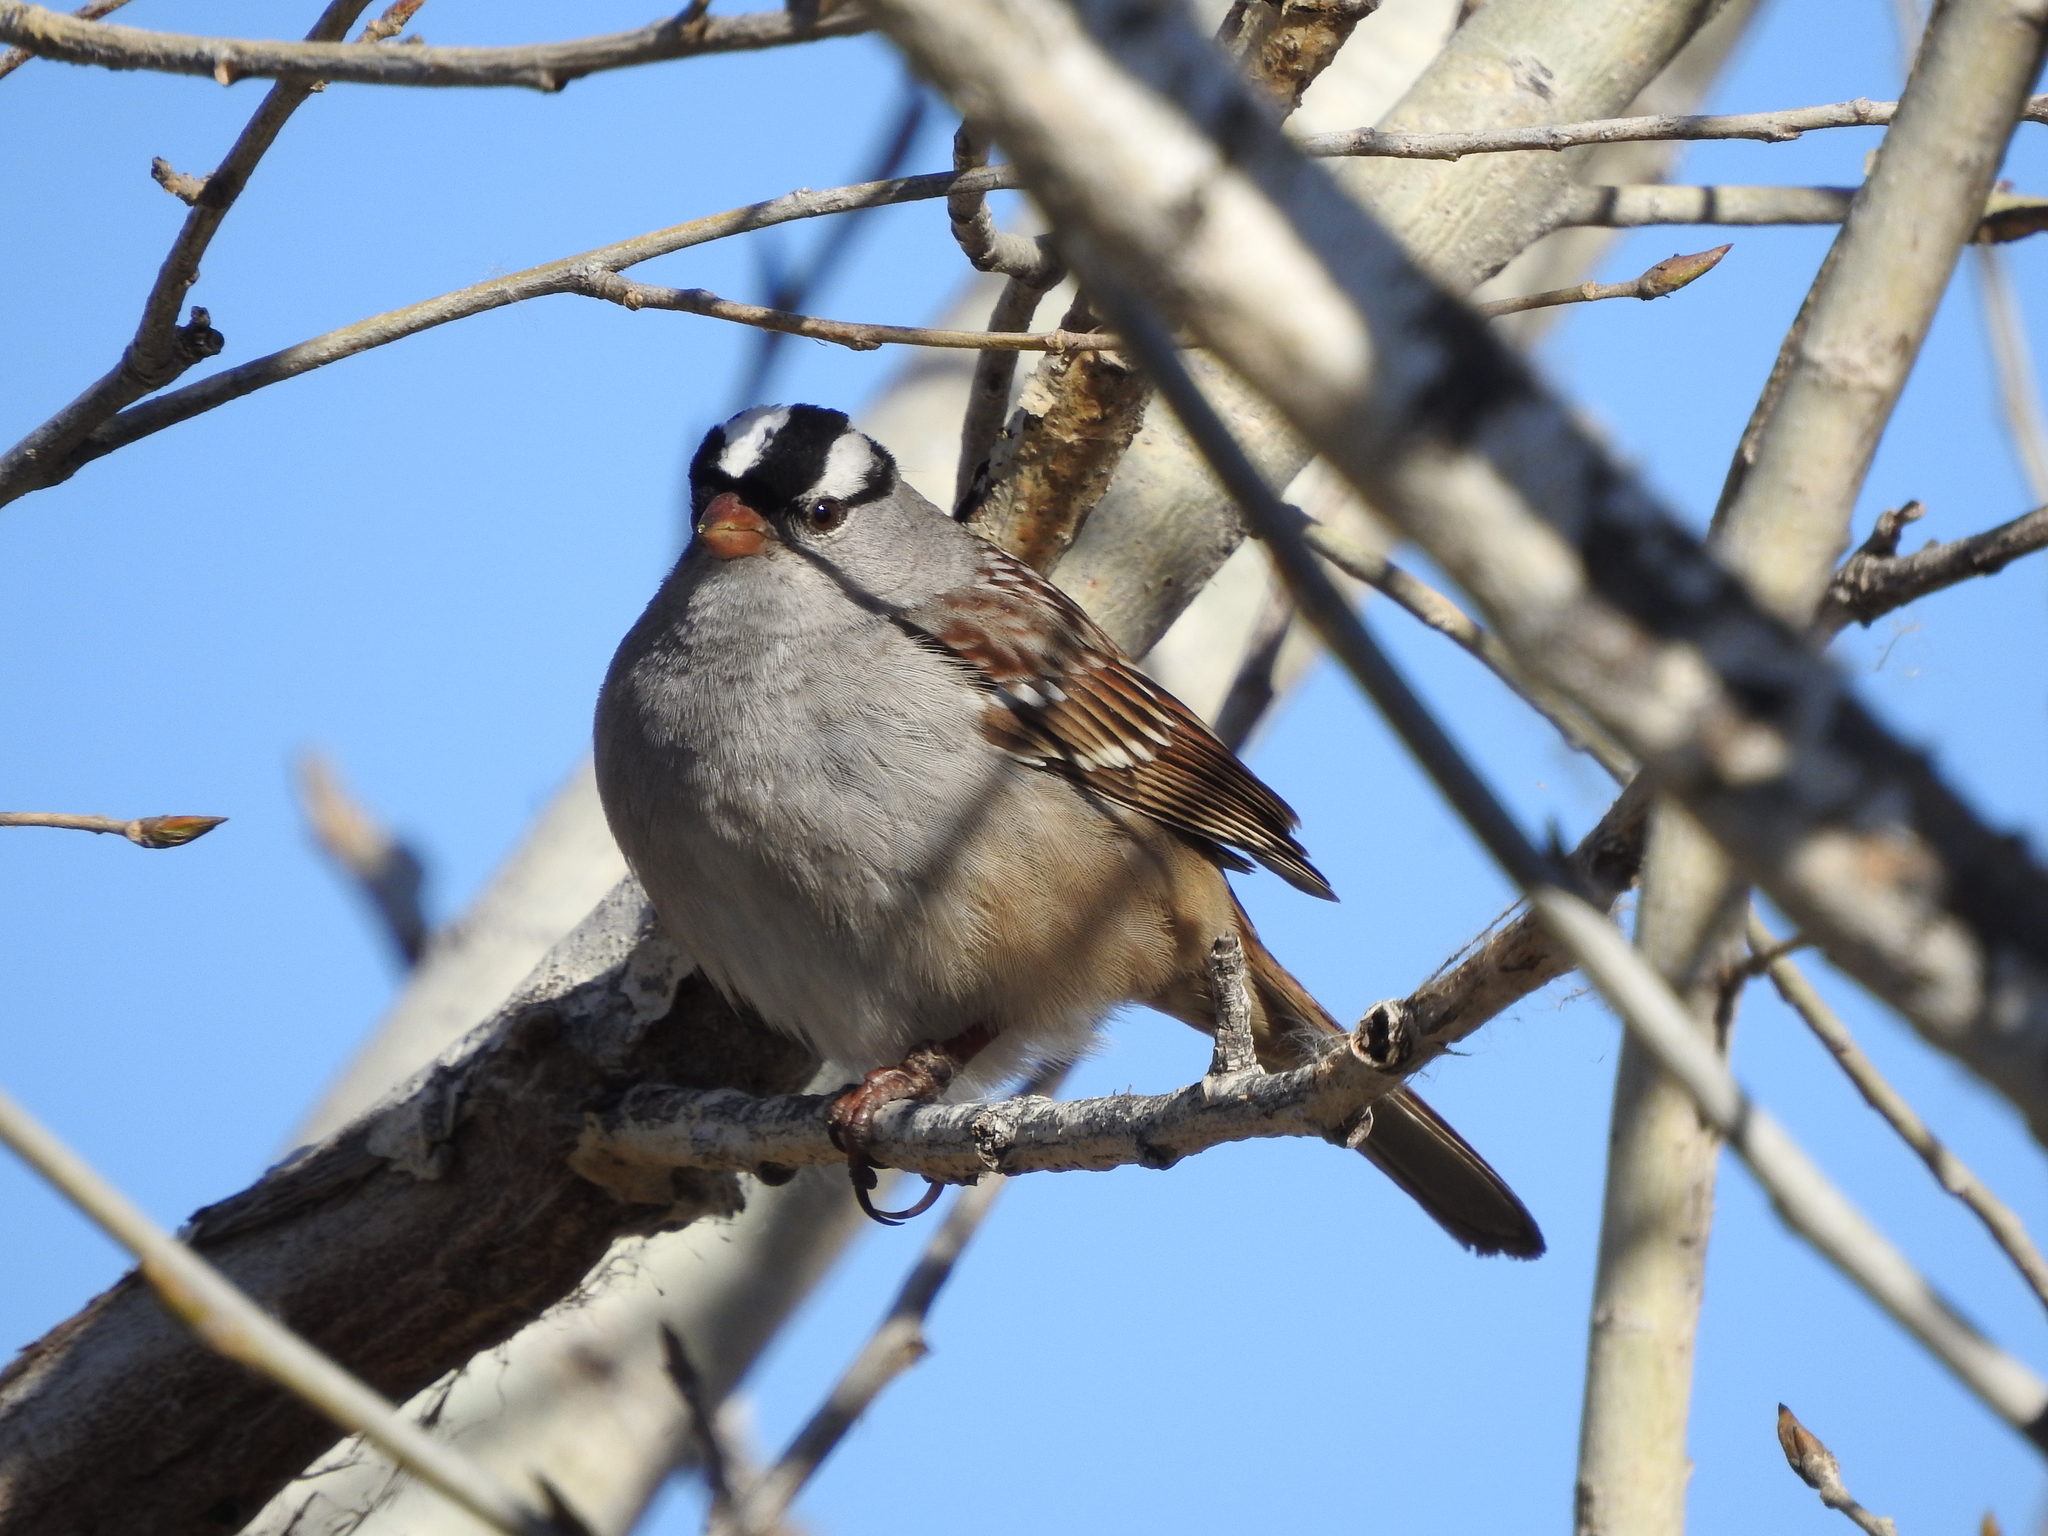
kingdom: Animalia
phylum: Chordata
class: Aves
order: Passeriformes
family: Passerellidae
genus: Zonotrichia
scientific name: Zonotrichia leucophrys
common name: White-crowned sparrow
